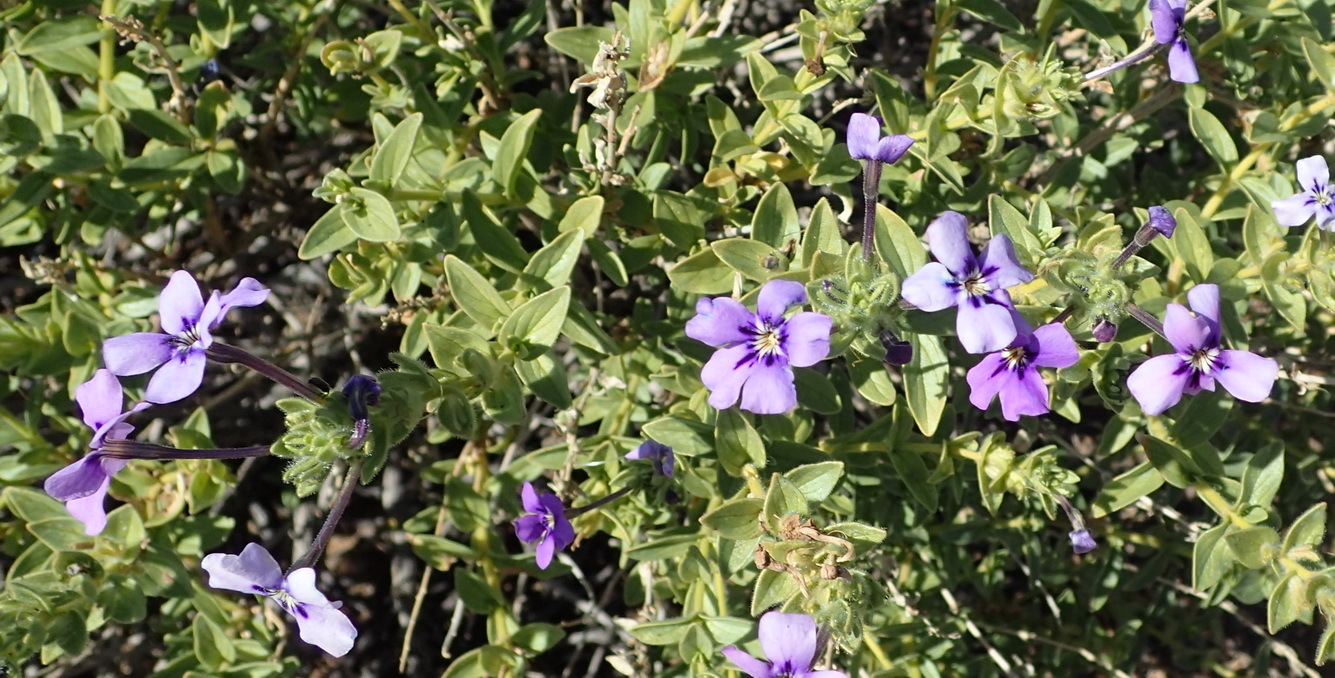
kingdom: Plantae
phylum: Tracheophyta
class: Magnoliopsida
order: Lamiales
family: Scrophulariaceae
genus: Jamesbrittenia
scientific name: Jamesbrittenia fruticosa
